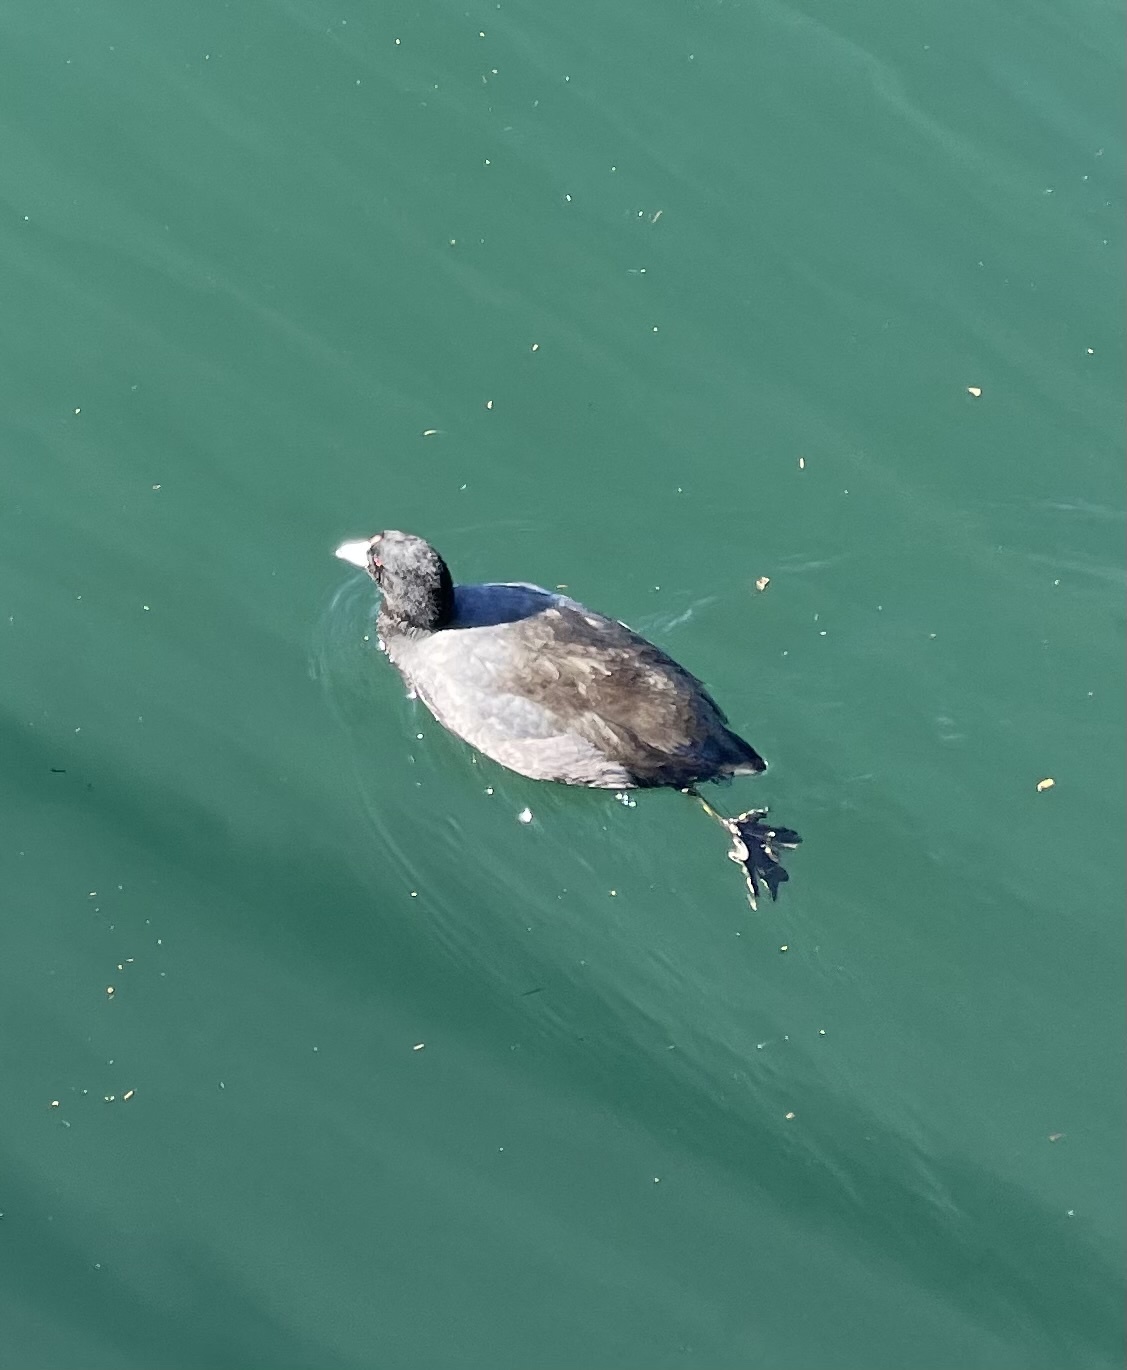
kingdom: Animalia
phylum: Chordata
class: Aves
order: Gruiformes
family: Rallidae
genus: Fulica
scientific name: Fulica americana
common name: American coot
